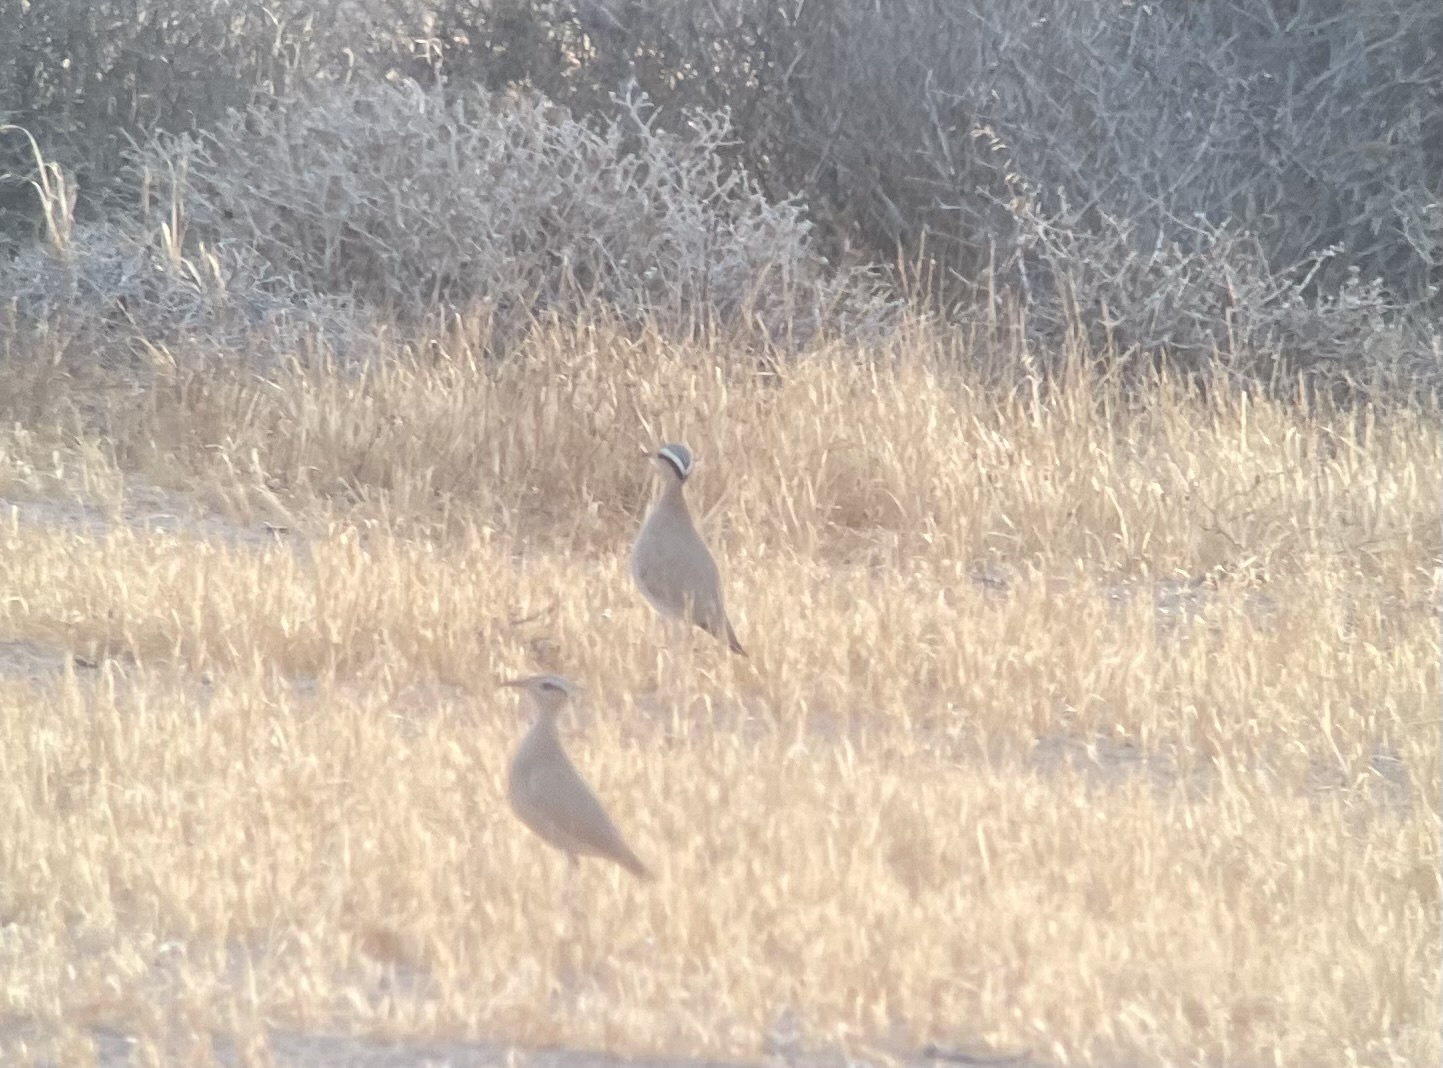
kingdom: Animalia
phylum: Chordata
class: Aves
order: Charadriiformes
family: Glareolidae
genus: Cursorius
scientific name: Cursorius cursor
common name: Cream-colored courser
